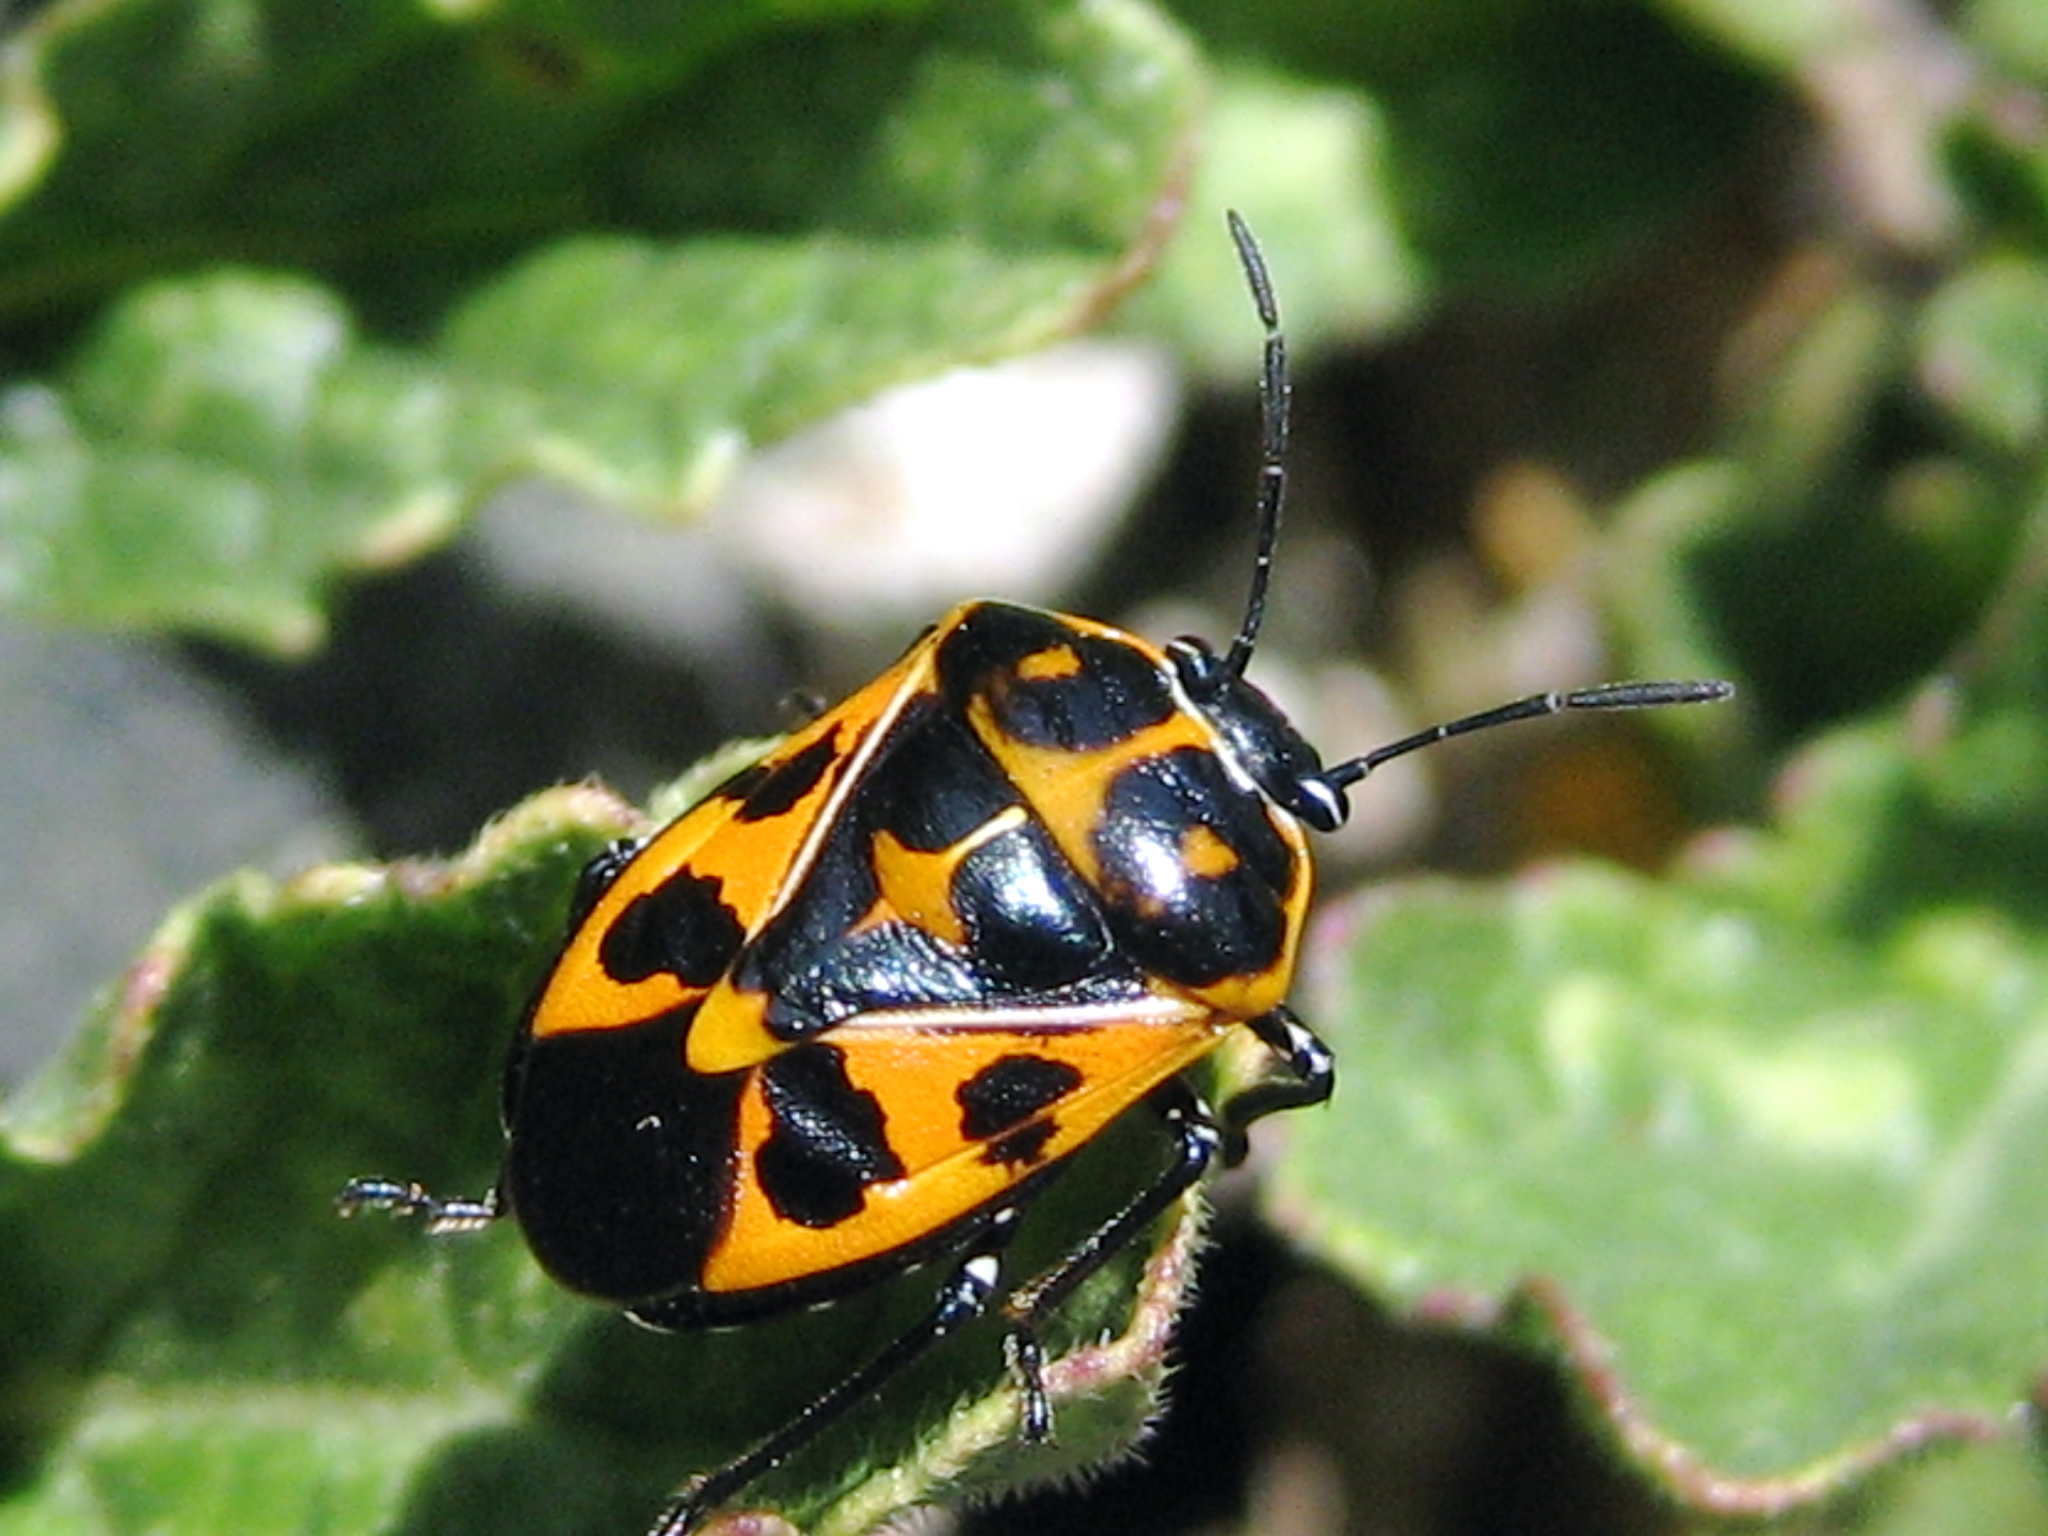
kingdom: Animalia
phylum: Arthropoda
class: Insecta
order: Hemiptera
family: Pentatomidae
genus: Murgantia
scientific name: Murgantia histrionica
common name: Harlequin bug
